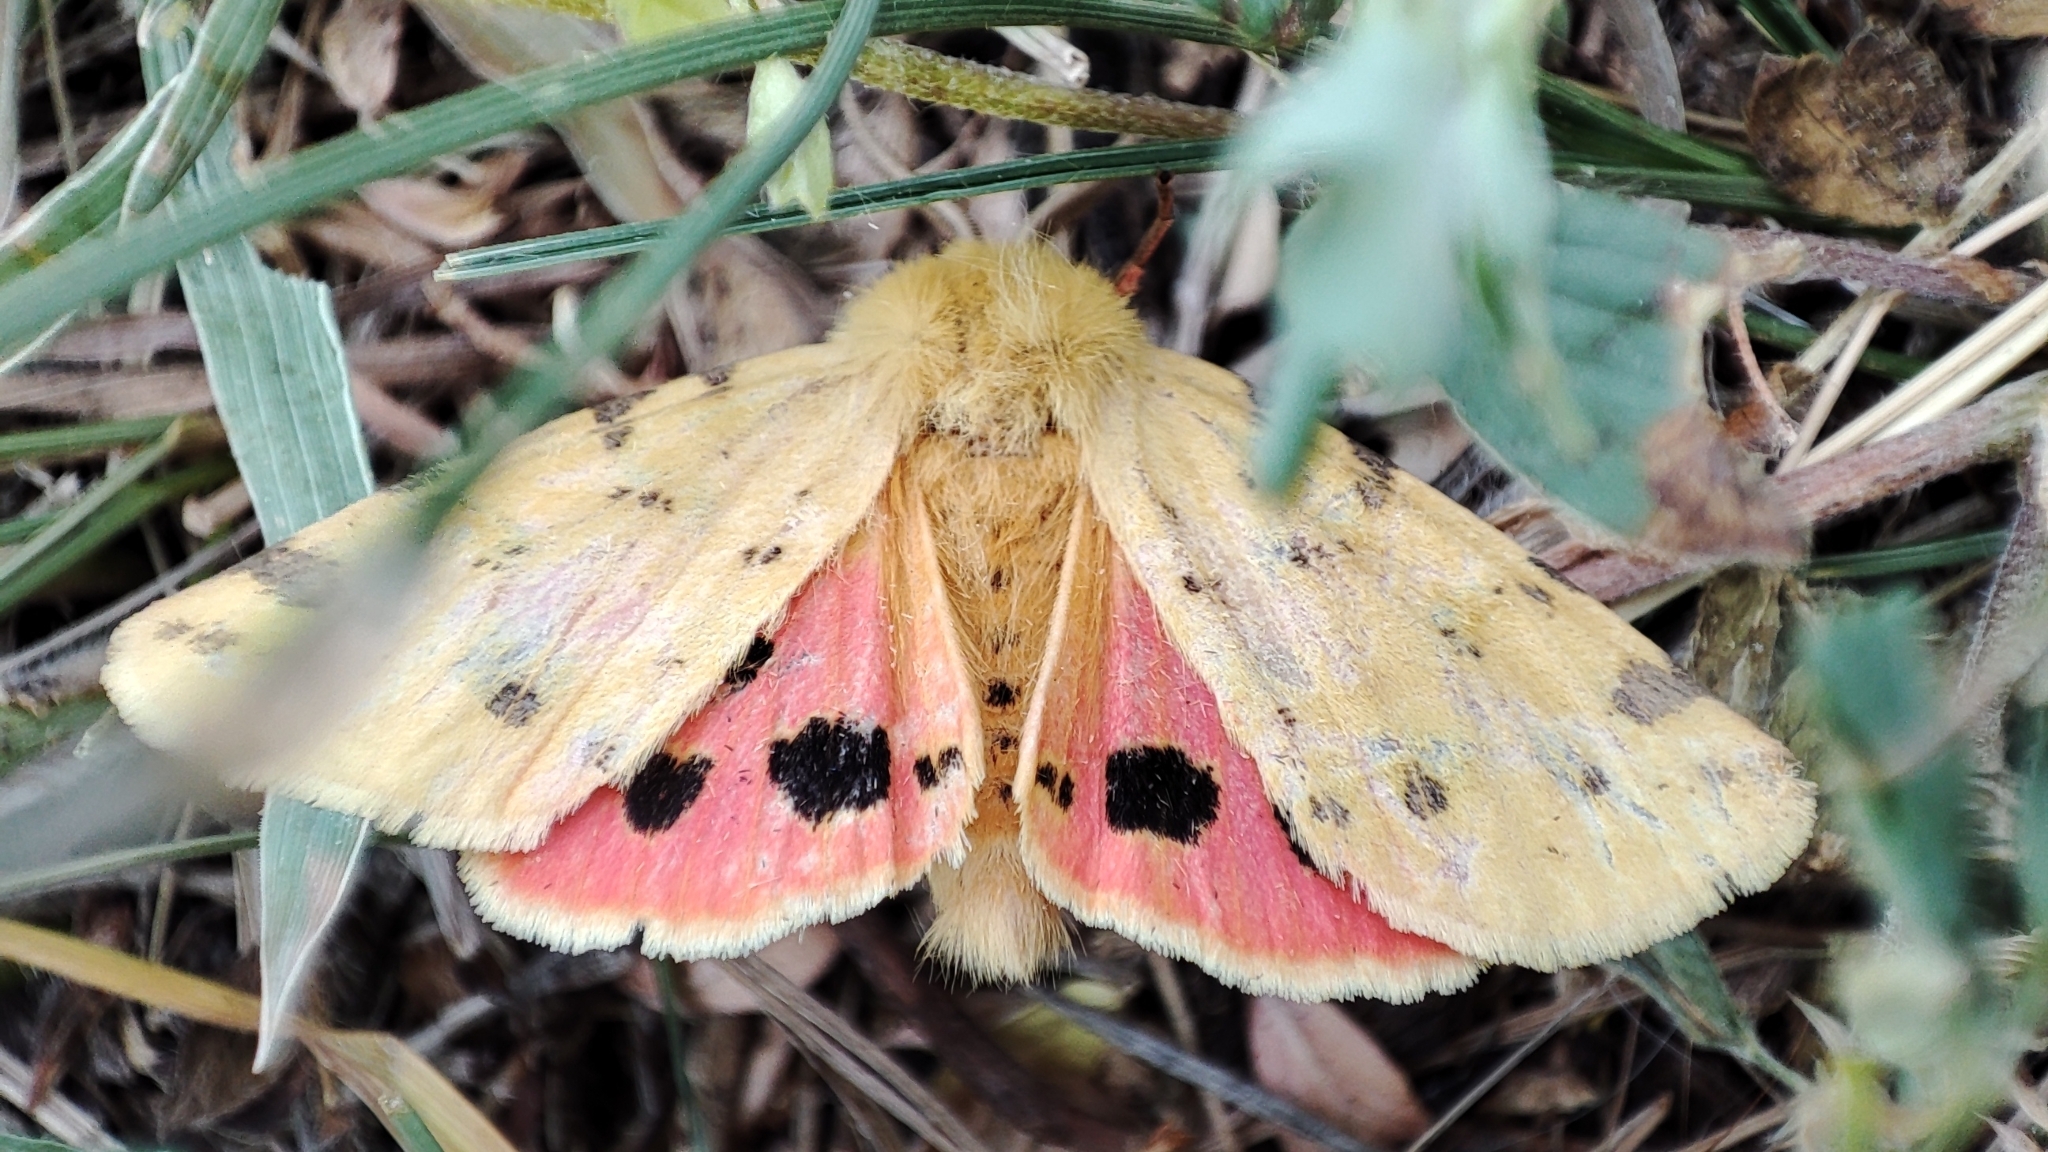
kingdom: Animalia
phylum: Arthropoda
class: Insecta
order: Lepidoptera
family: Erebidae
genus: Rhyparia
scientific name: Rhyparia purpurata
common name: Purple tiger
